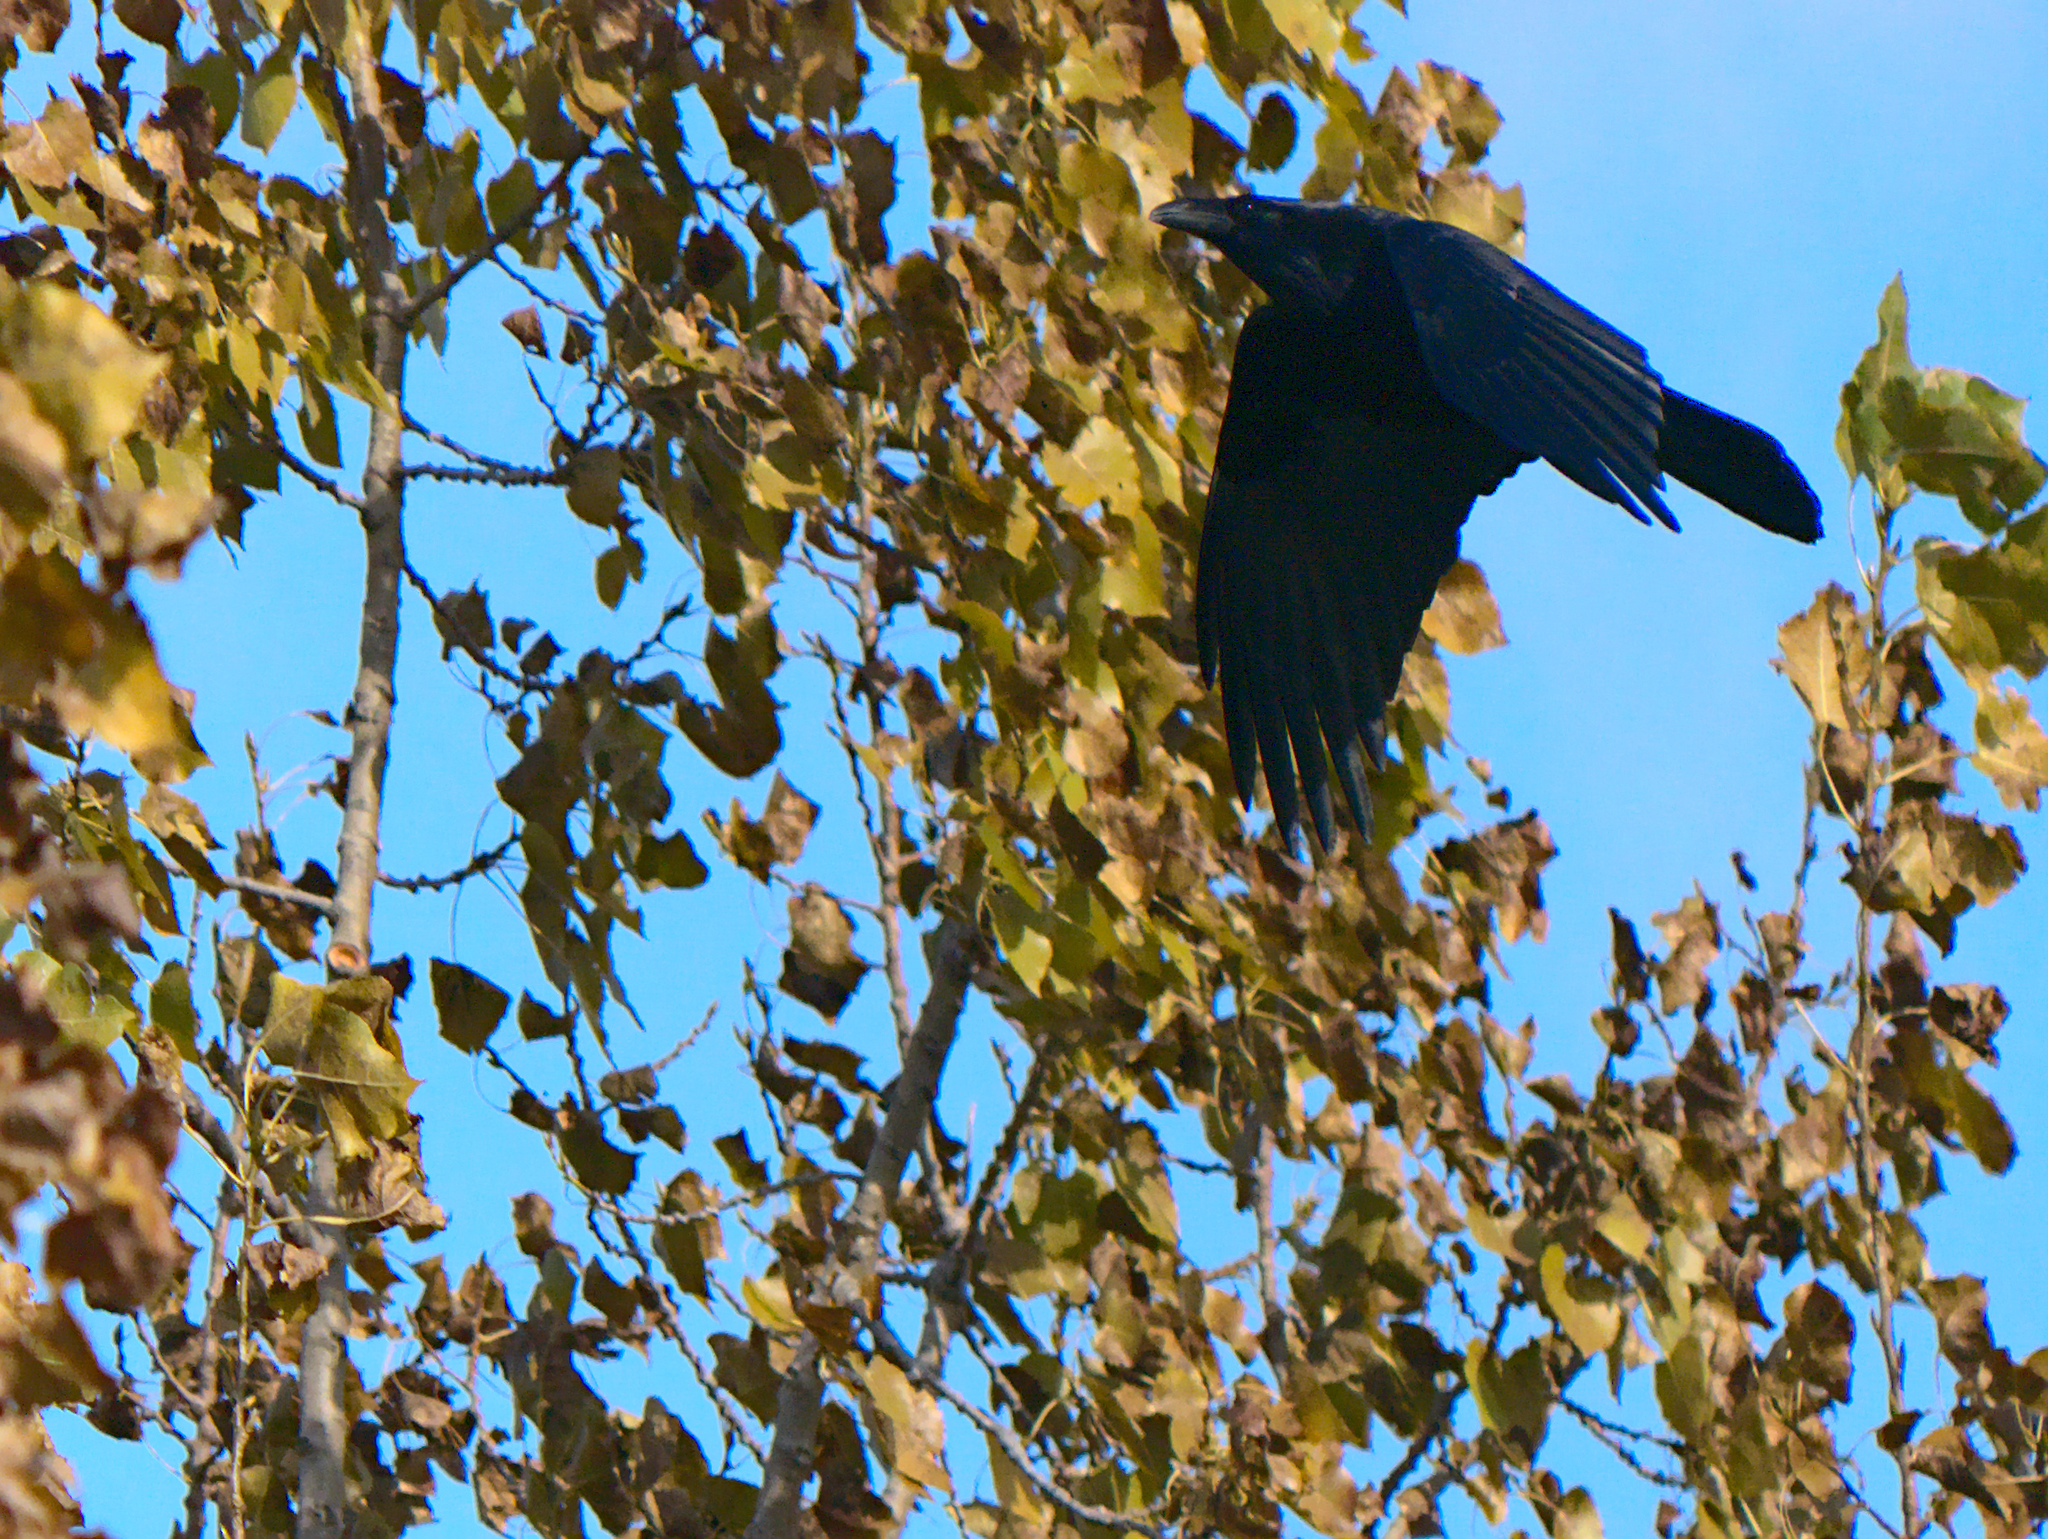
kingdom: Animalia
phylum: Chordata
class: Aves
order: Passeriformes
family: Corvidae
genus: Corvus
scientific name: Corvus corax
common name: Common raven
